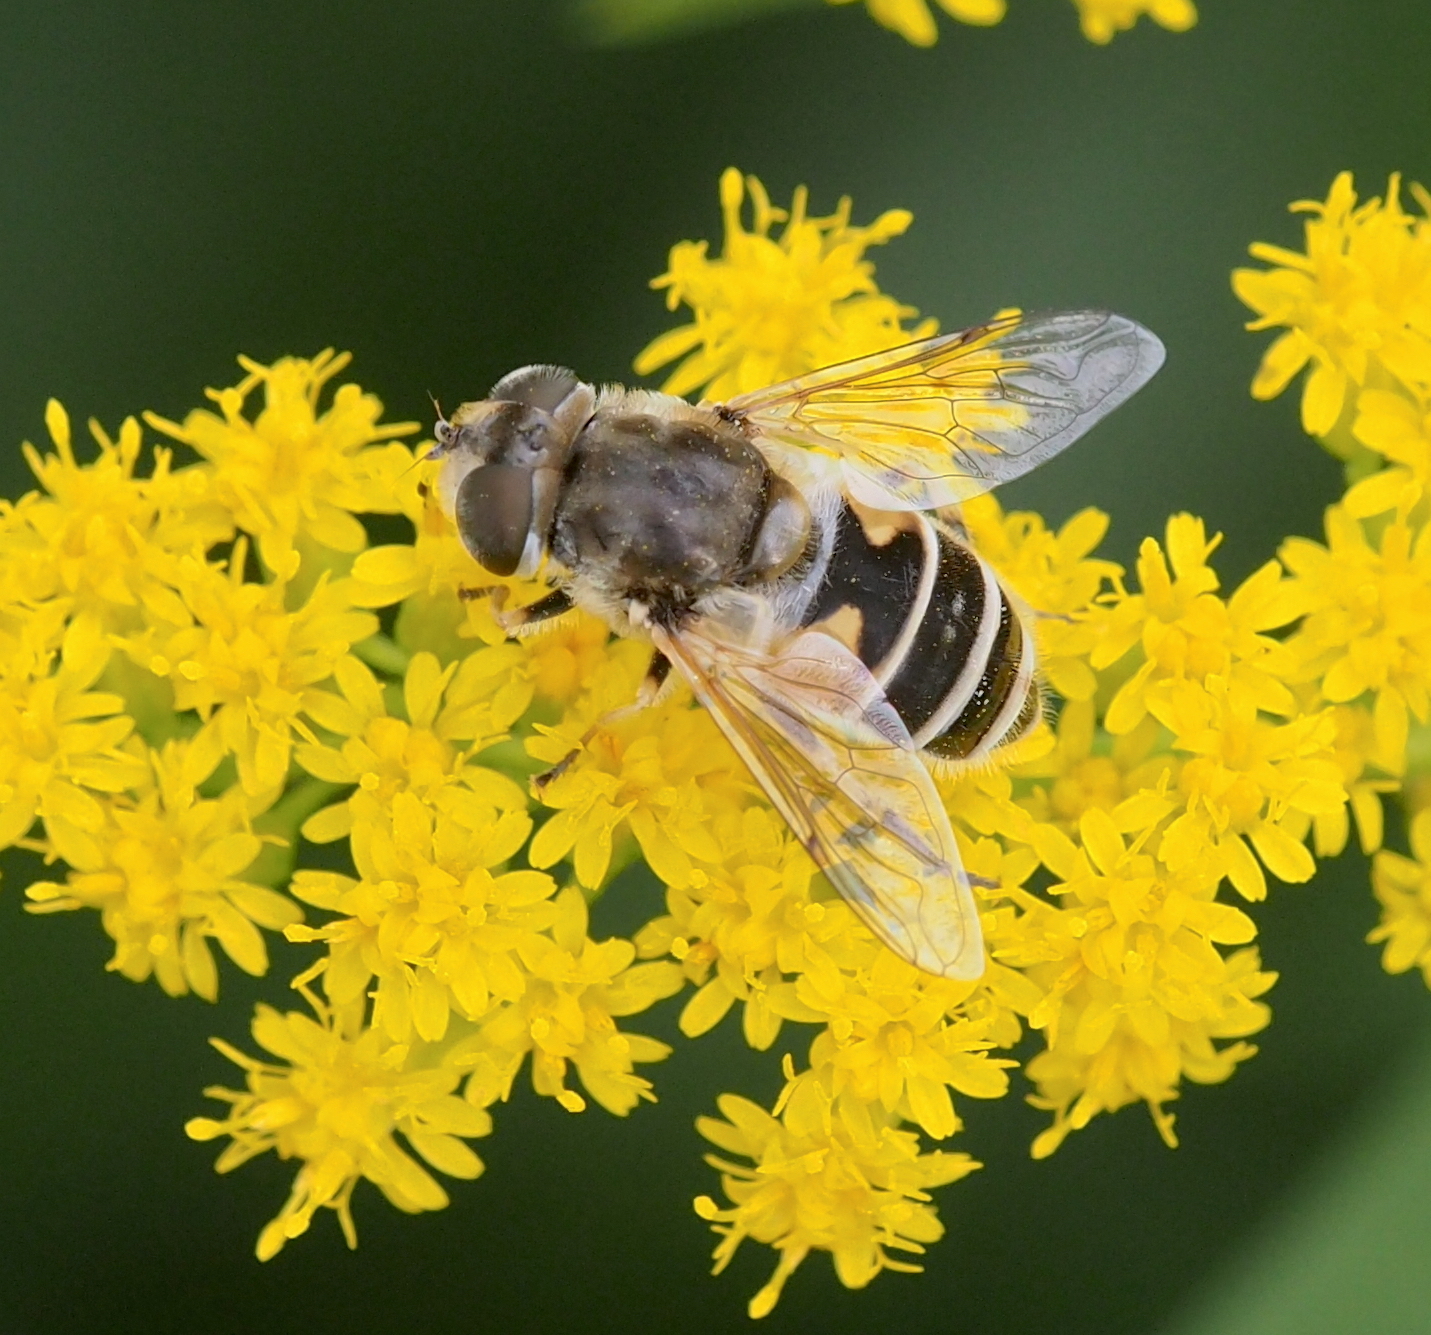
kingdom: Animalia
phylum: Arthropoda
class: Insecta
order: Diptera
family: Syrphidae
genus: Eristalis
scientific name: Eristalis arbustorum
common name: Hover fly
